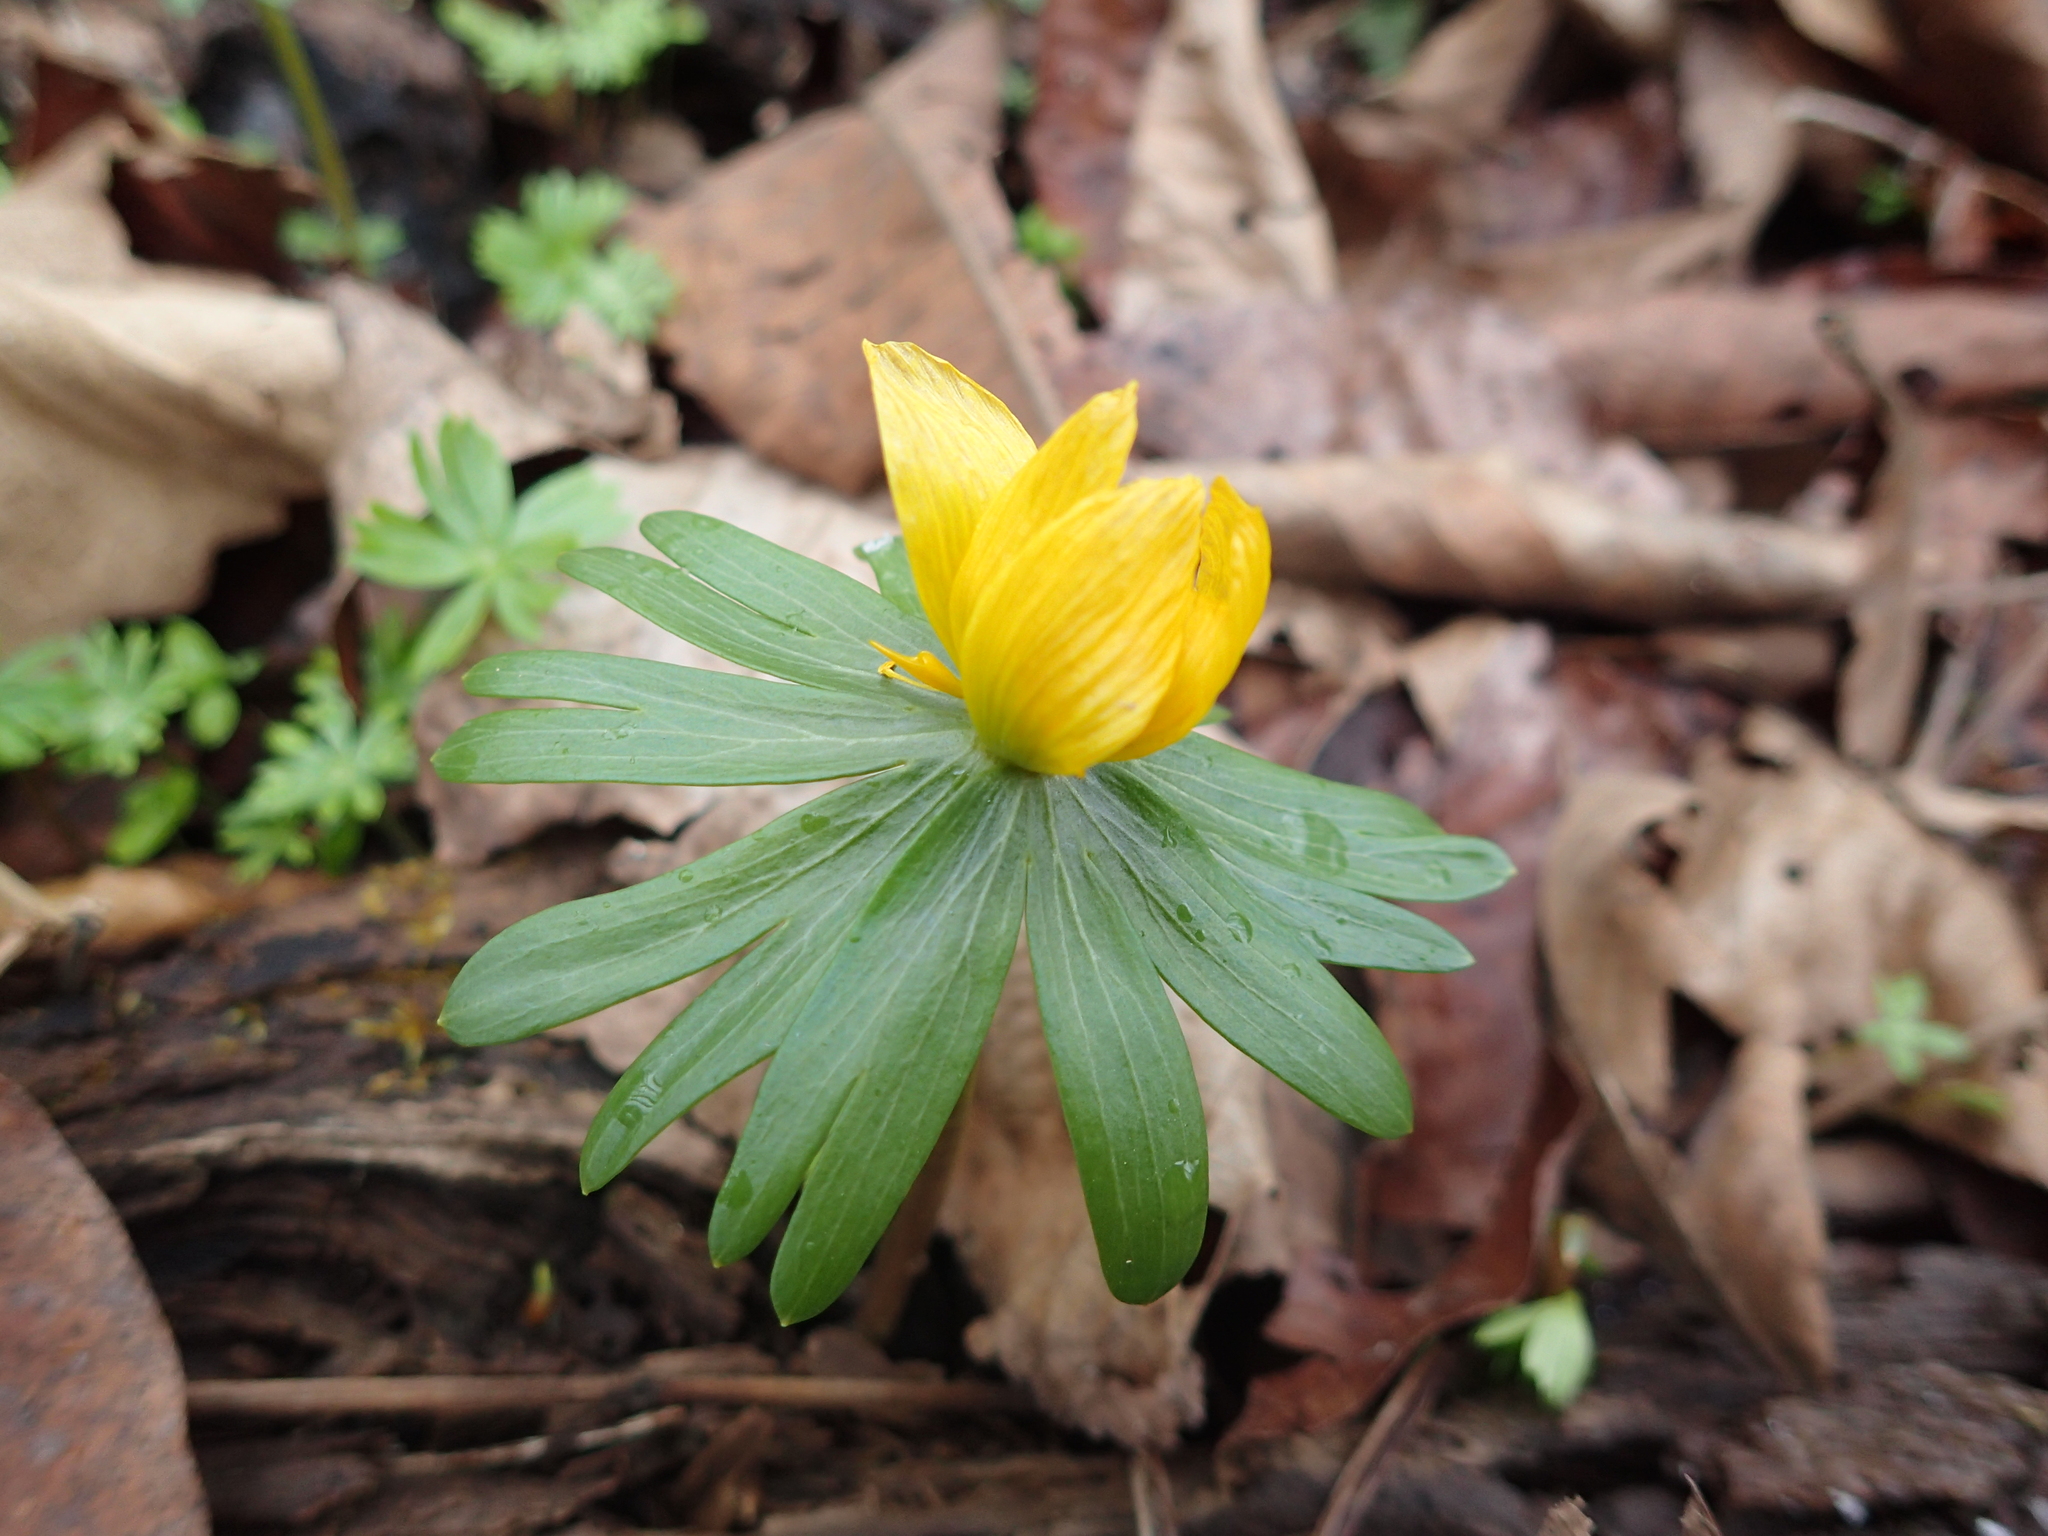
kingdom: Plantae
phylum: Tracheophyta
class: Magnoliopsida
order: Ranunculales
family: Ranunculaceae
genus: Eranthis
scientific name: Eranthis hyemalis
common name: Winter aconite
